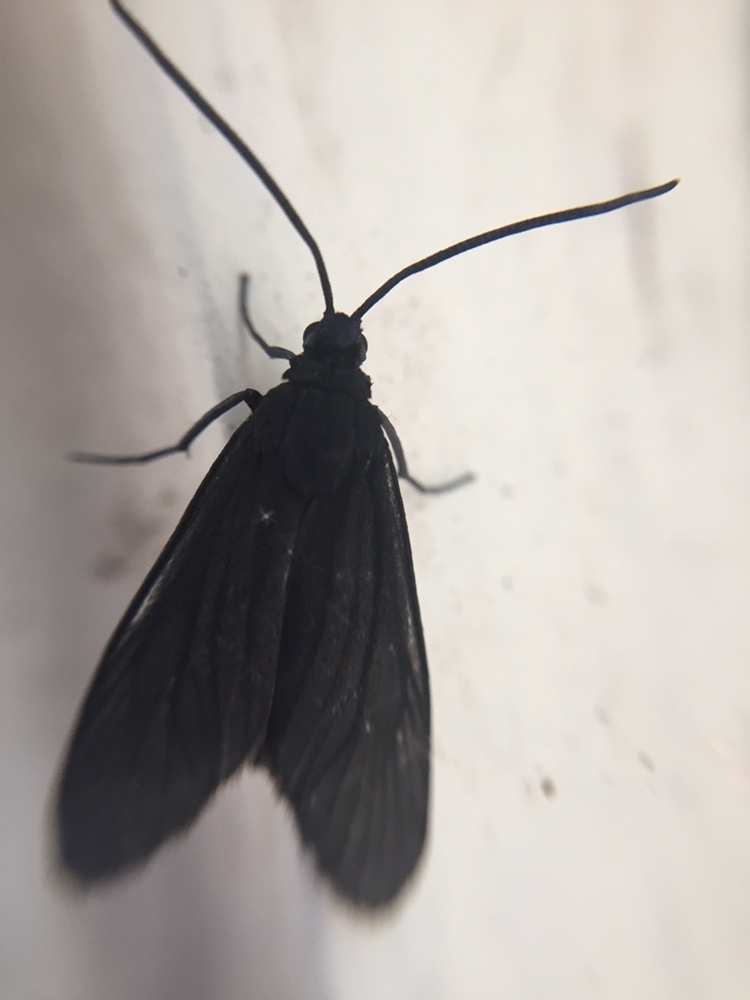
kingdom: Animalia
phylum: Arthropoda
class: Insecta
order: Lepidoptera
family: Zygaenidae
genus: Artona
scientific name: Artona martini
